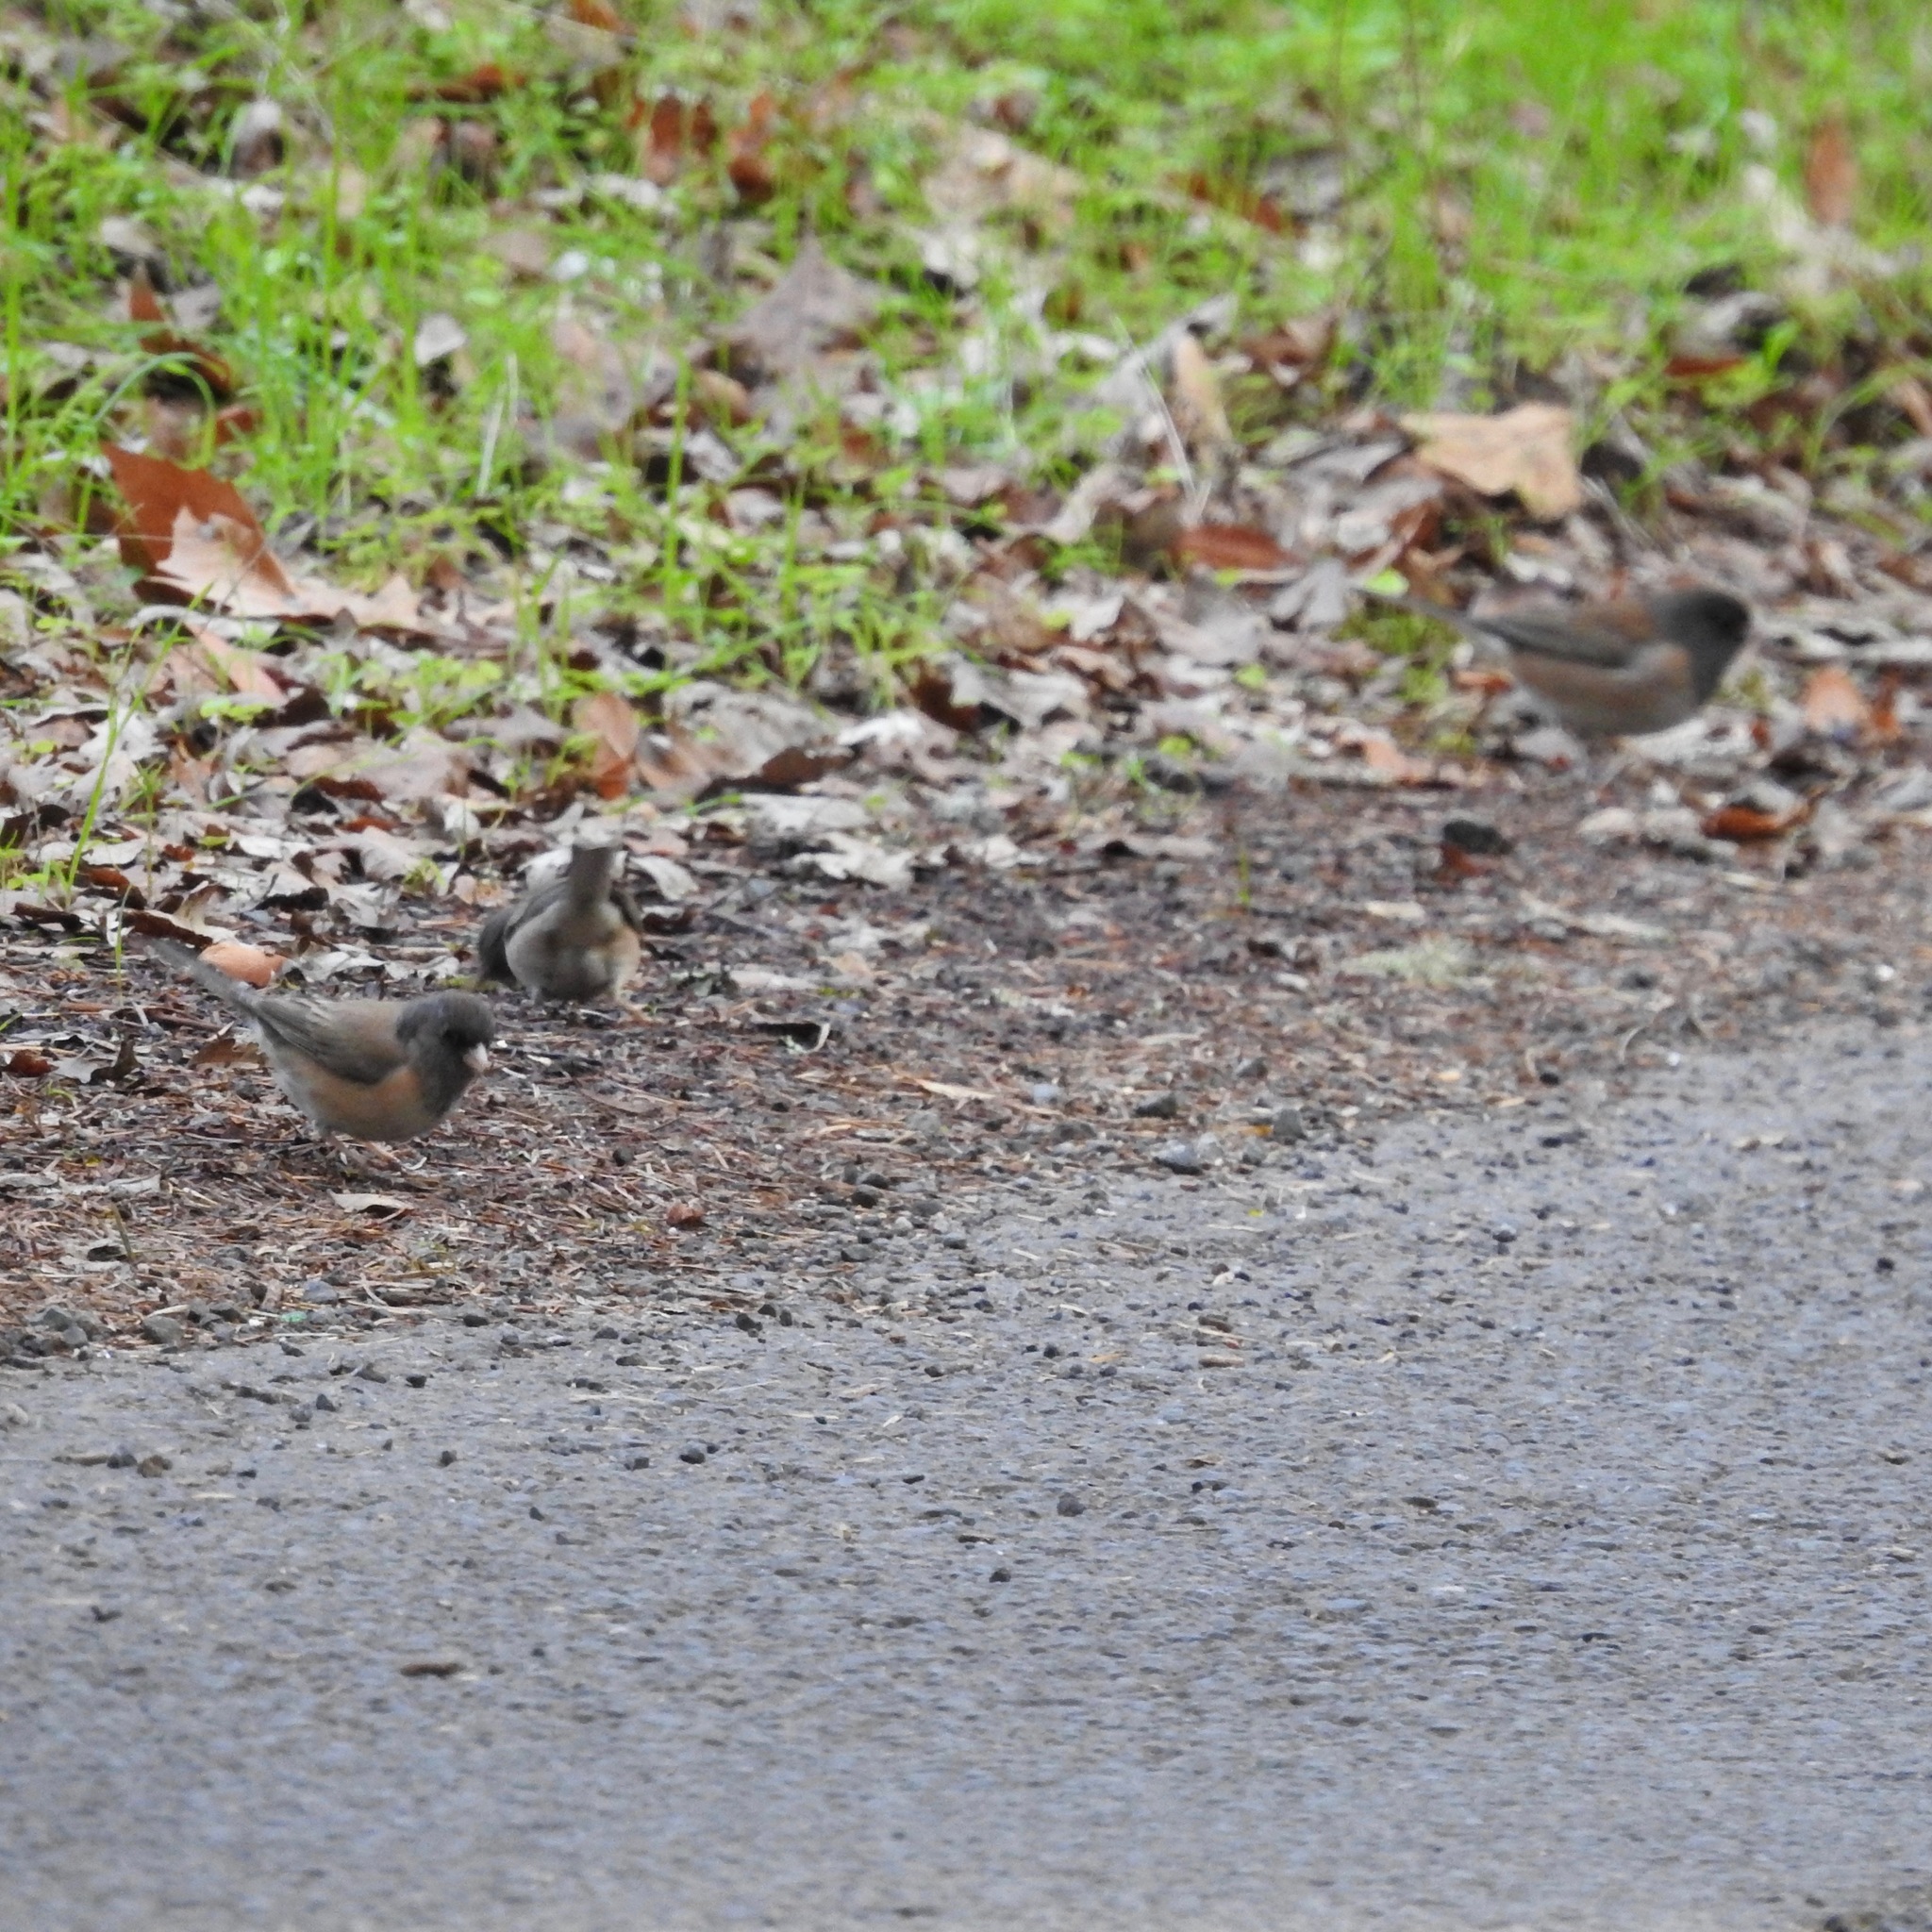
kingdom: Animalia
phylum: Chordata
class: Aves
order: Passeriformes
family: Passerellidae
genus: Junco
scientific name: Junco hyemalis
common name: Dark-eyed junco
